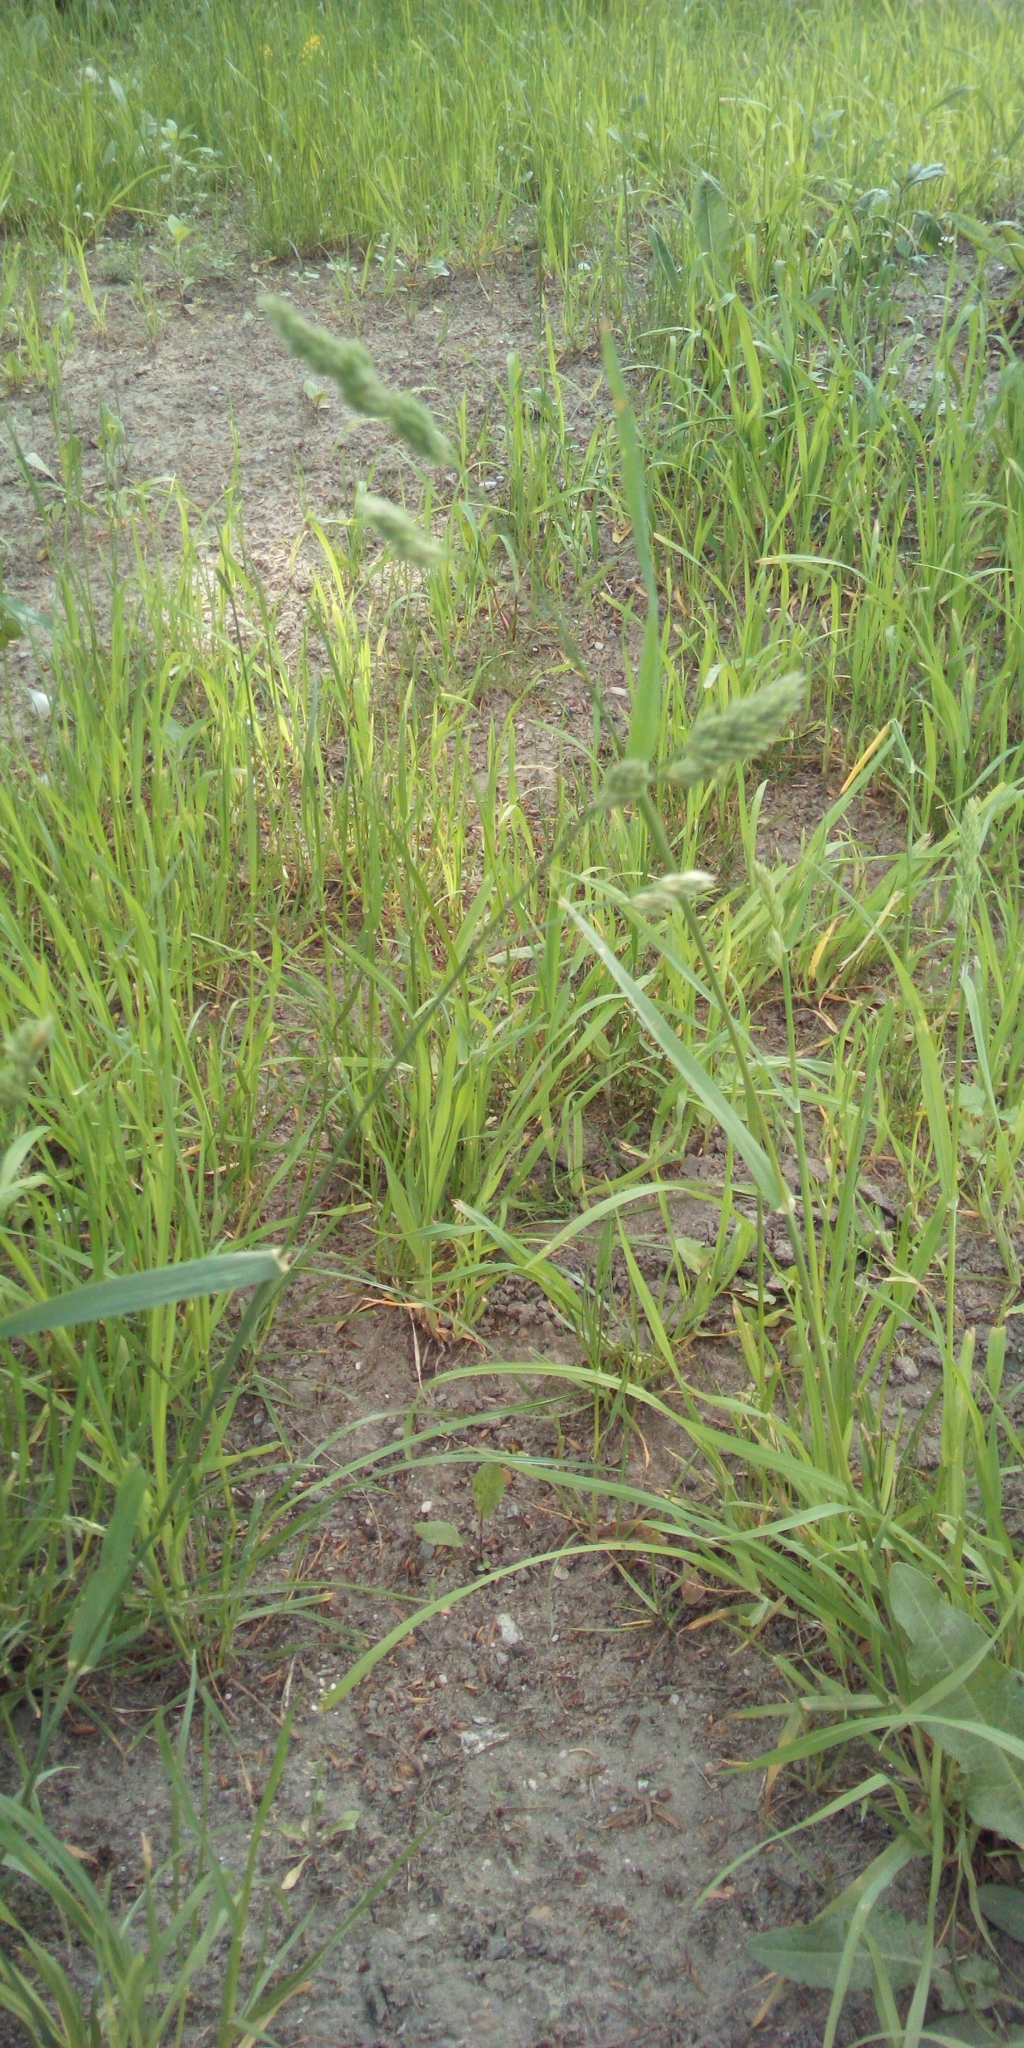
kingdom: Plantae
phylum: Tracheophyta
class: Liliopsida
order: Poales
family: Poaceae
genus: Dactylis
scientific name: Dactylis glomerata
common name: Orchardgrass
